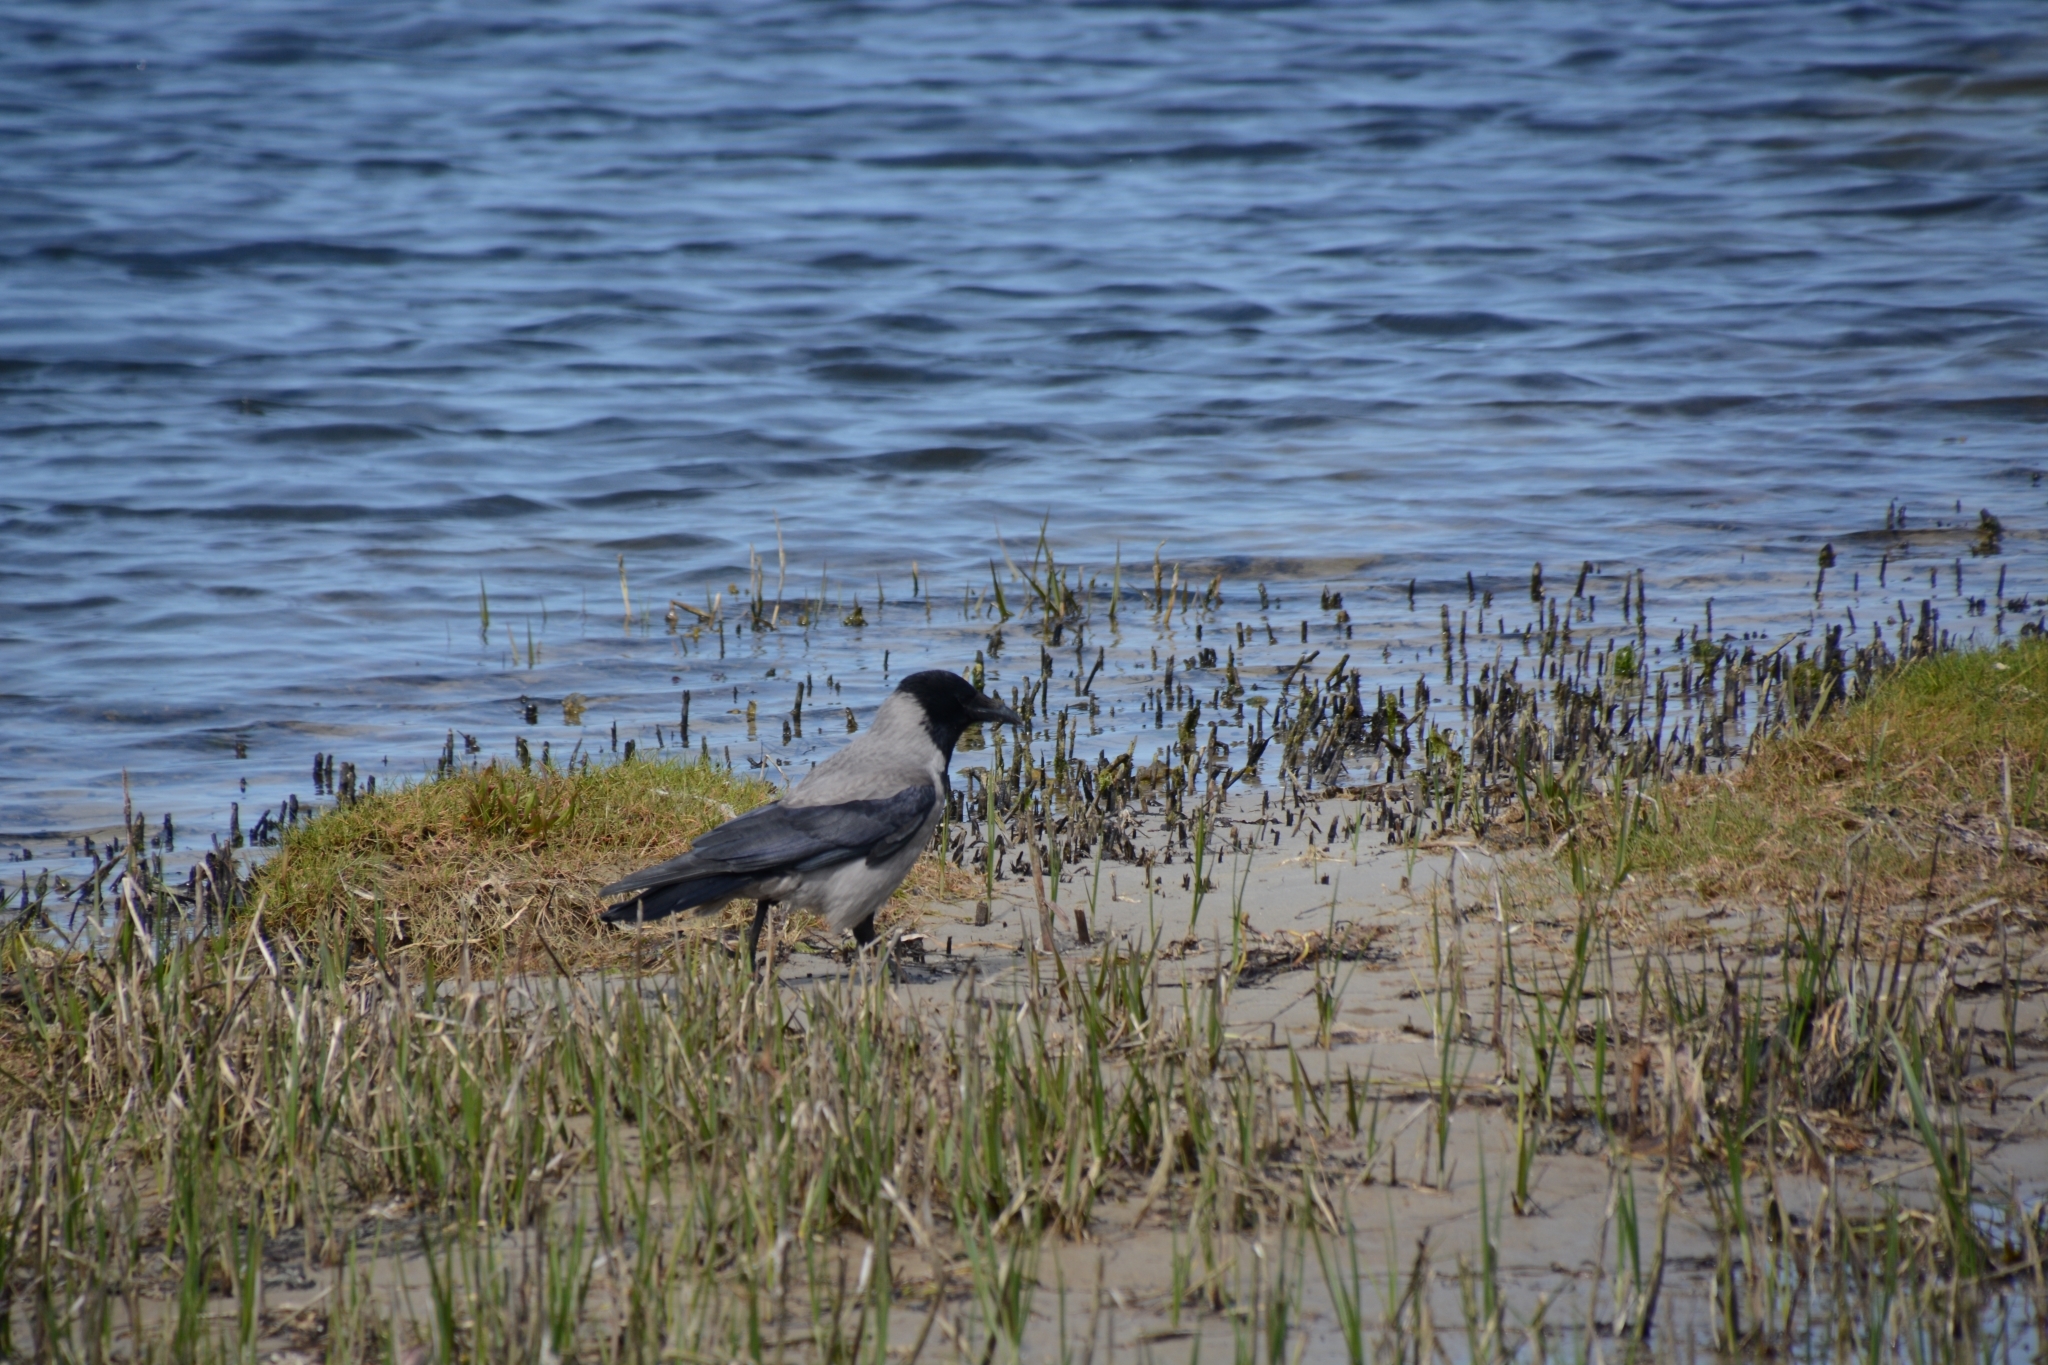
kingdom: Animalia
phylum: Chordata
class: Aves
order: Passeriformes
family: Corvidae
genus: Corvus
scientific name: Corvus cornix
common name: Hooded crow
